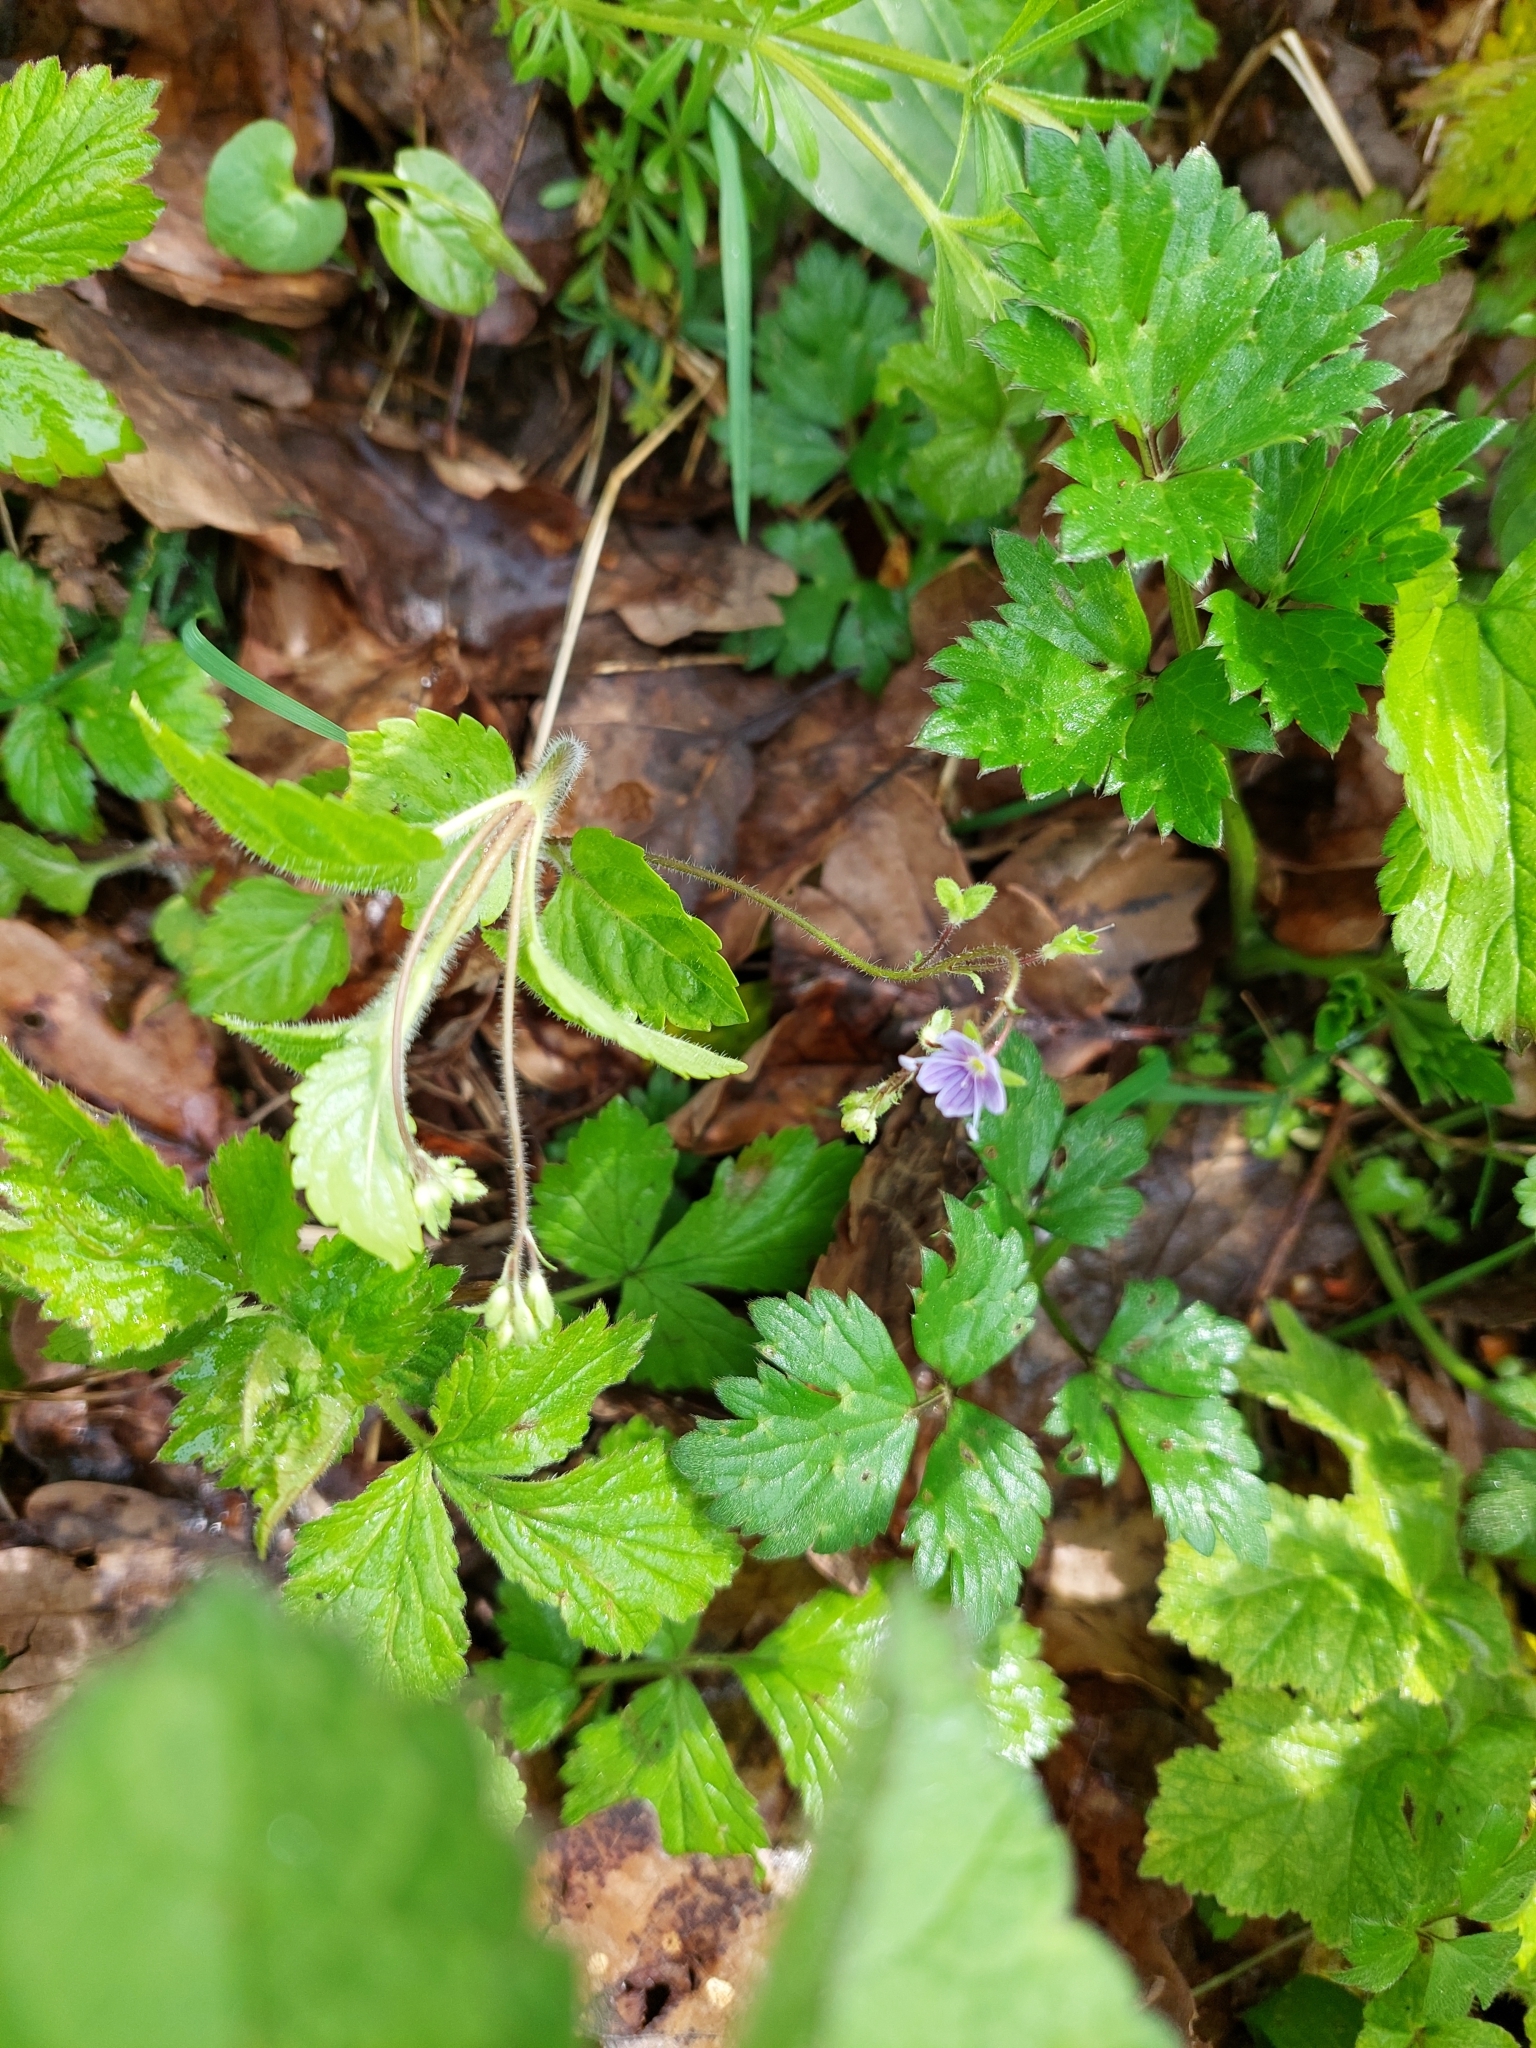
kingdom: Plantae
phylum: Tracheophyta
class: Magnoliopsida
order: Lamiales
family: Plantaginaceae
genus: Veronica
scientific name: Veronica montana
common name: Wood speedwell
